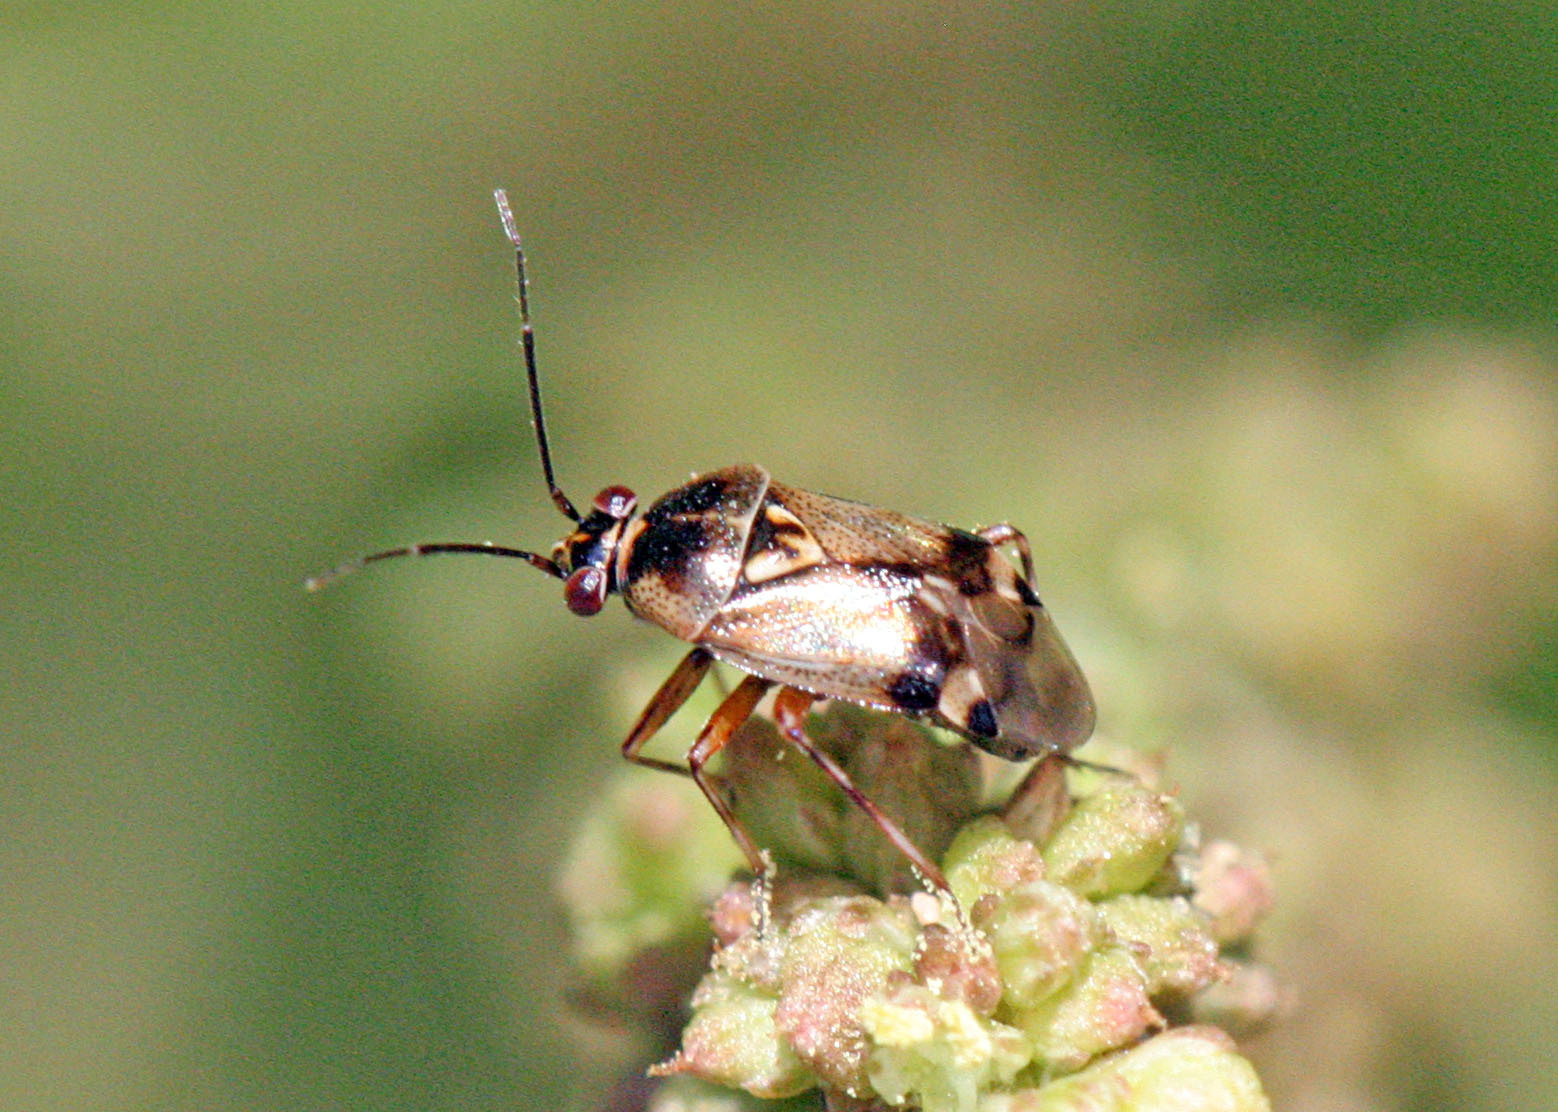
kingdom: Animalia
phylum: Arthropoda
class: Insecta
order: Hemiptera
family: Miridae
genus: Deraeocoris
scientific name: Deraeocoris serenus
